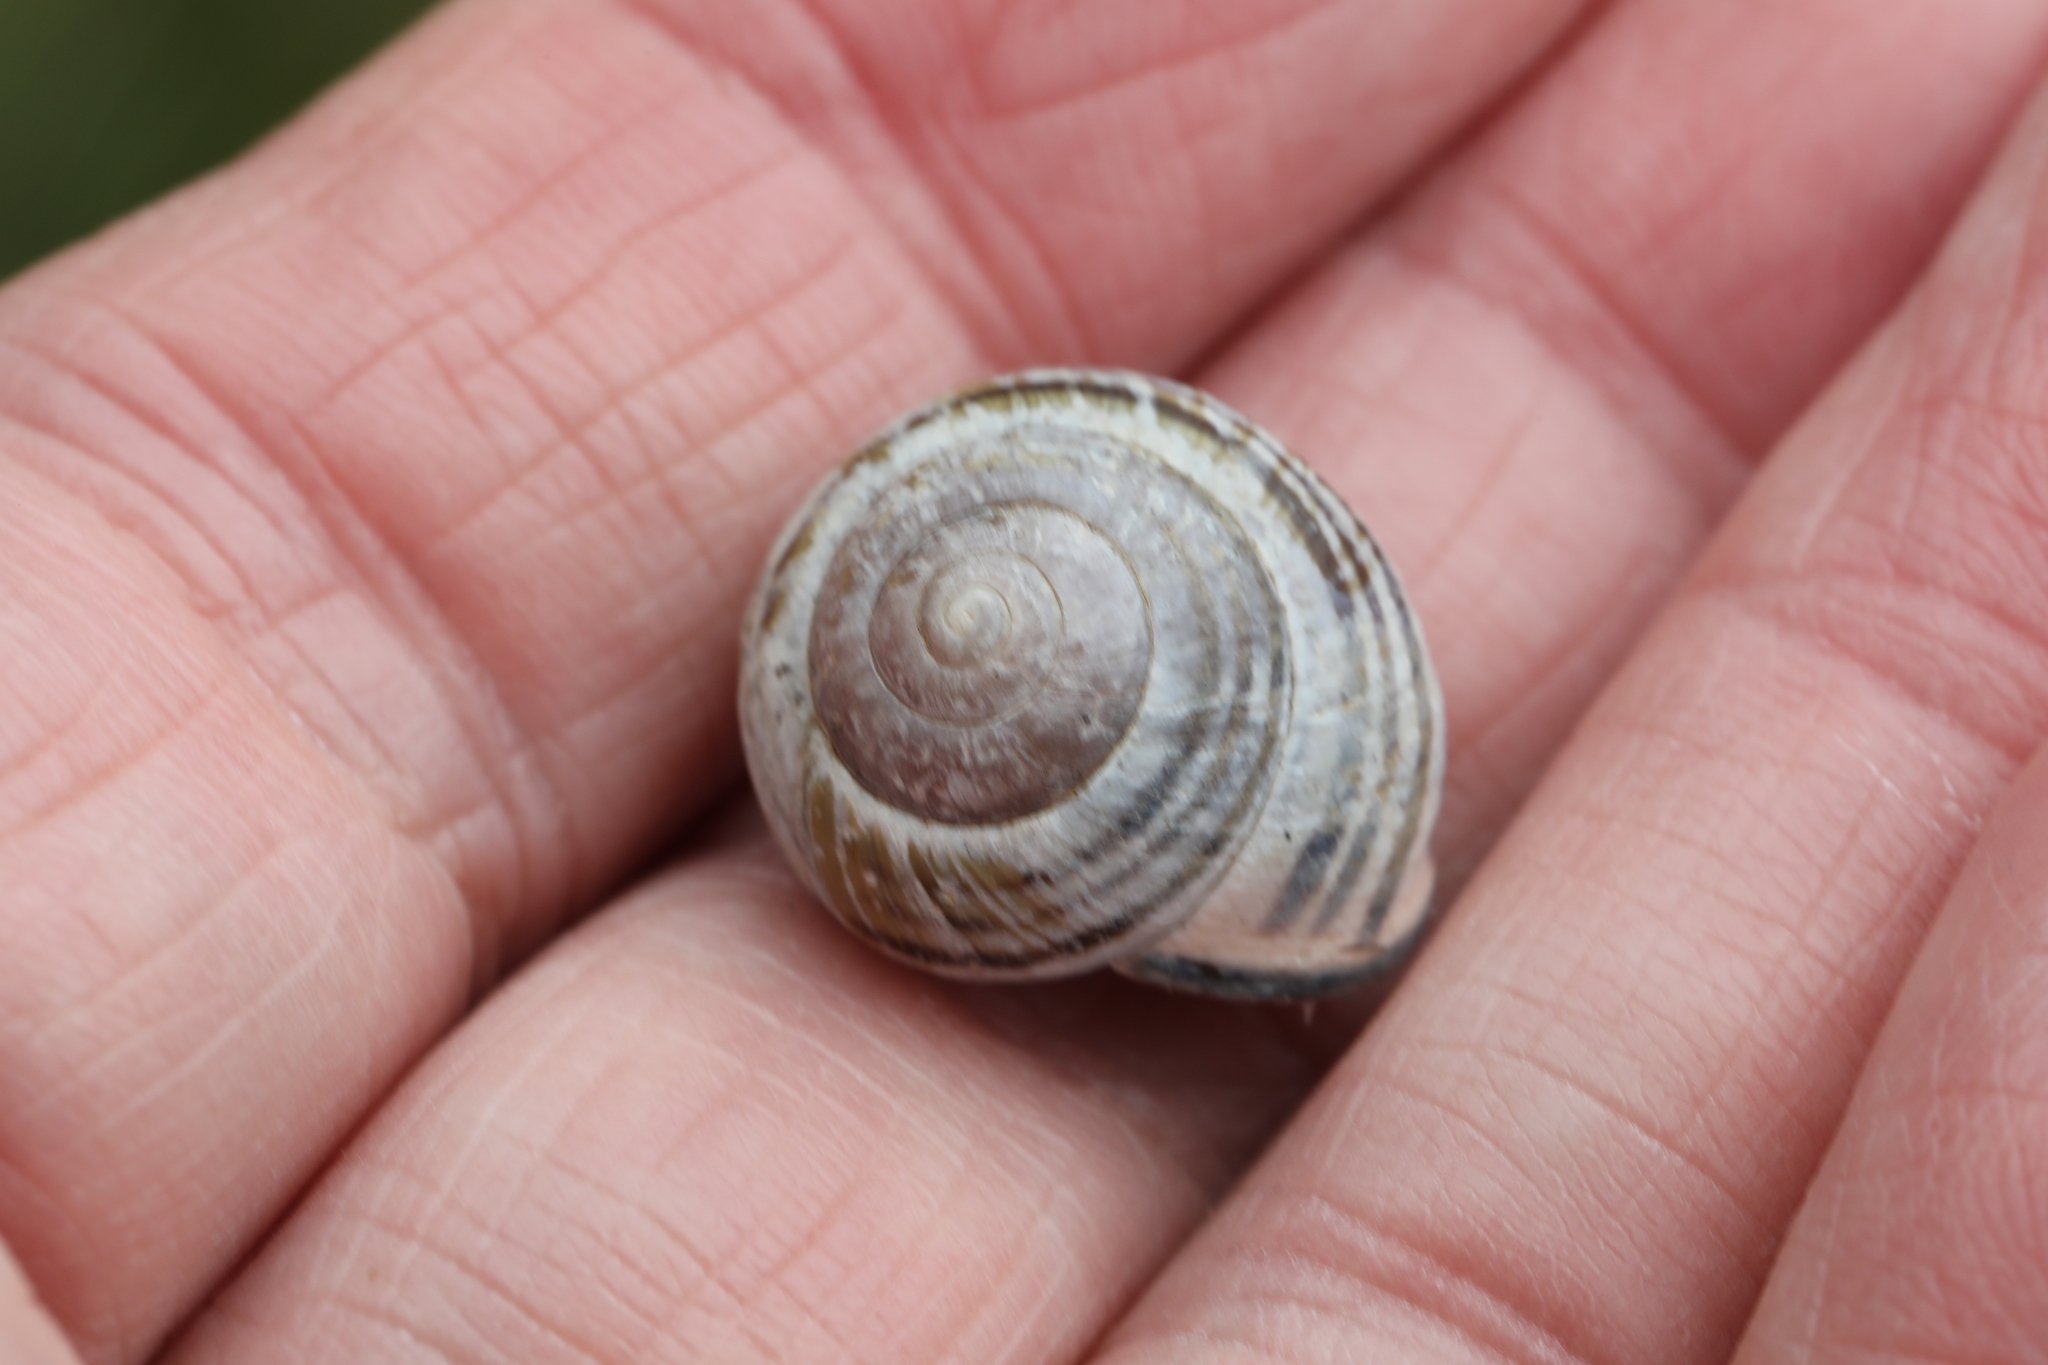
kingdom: Animalia
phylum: Mollusca
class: Gastropoda
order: Stylommatophora
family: Helicidae
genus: Cepaea
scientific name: Cepaea nemoralis
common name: Grovesnail
